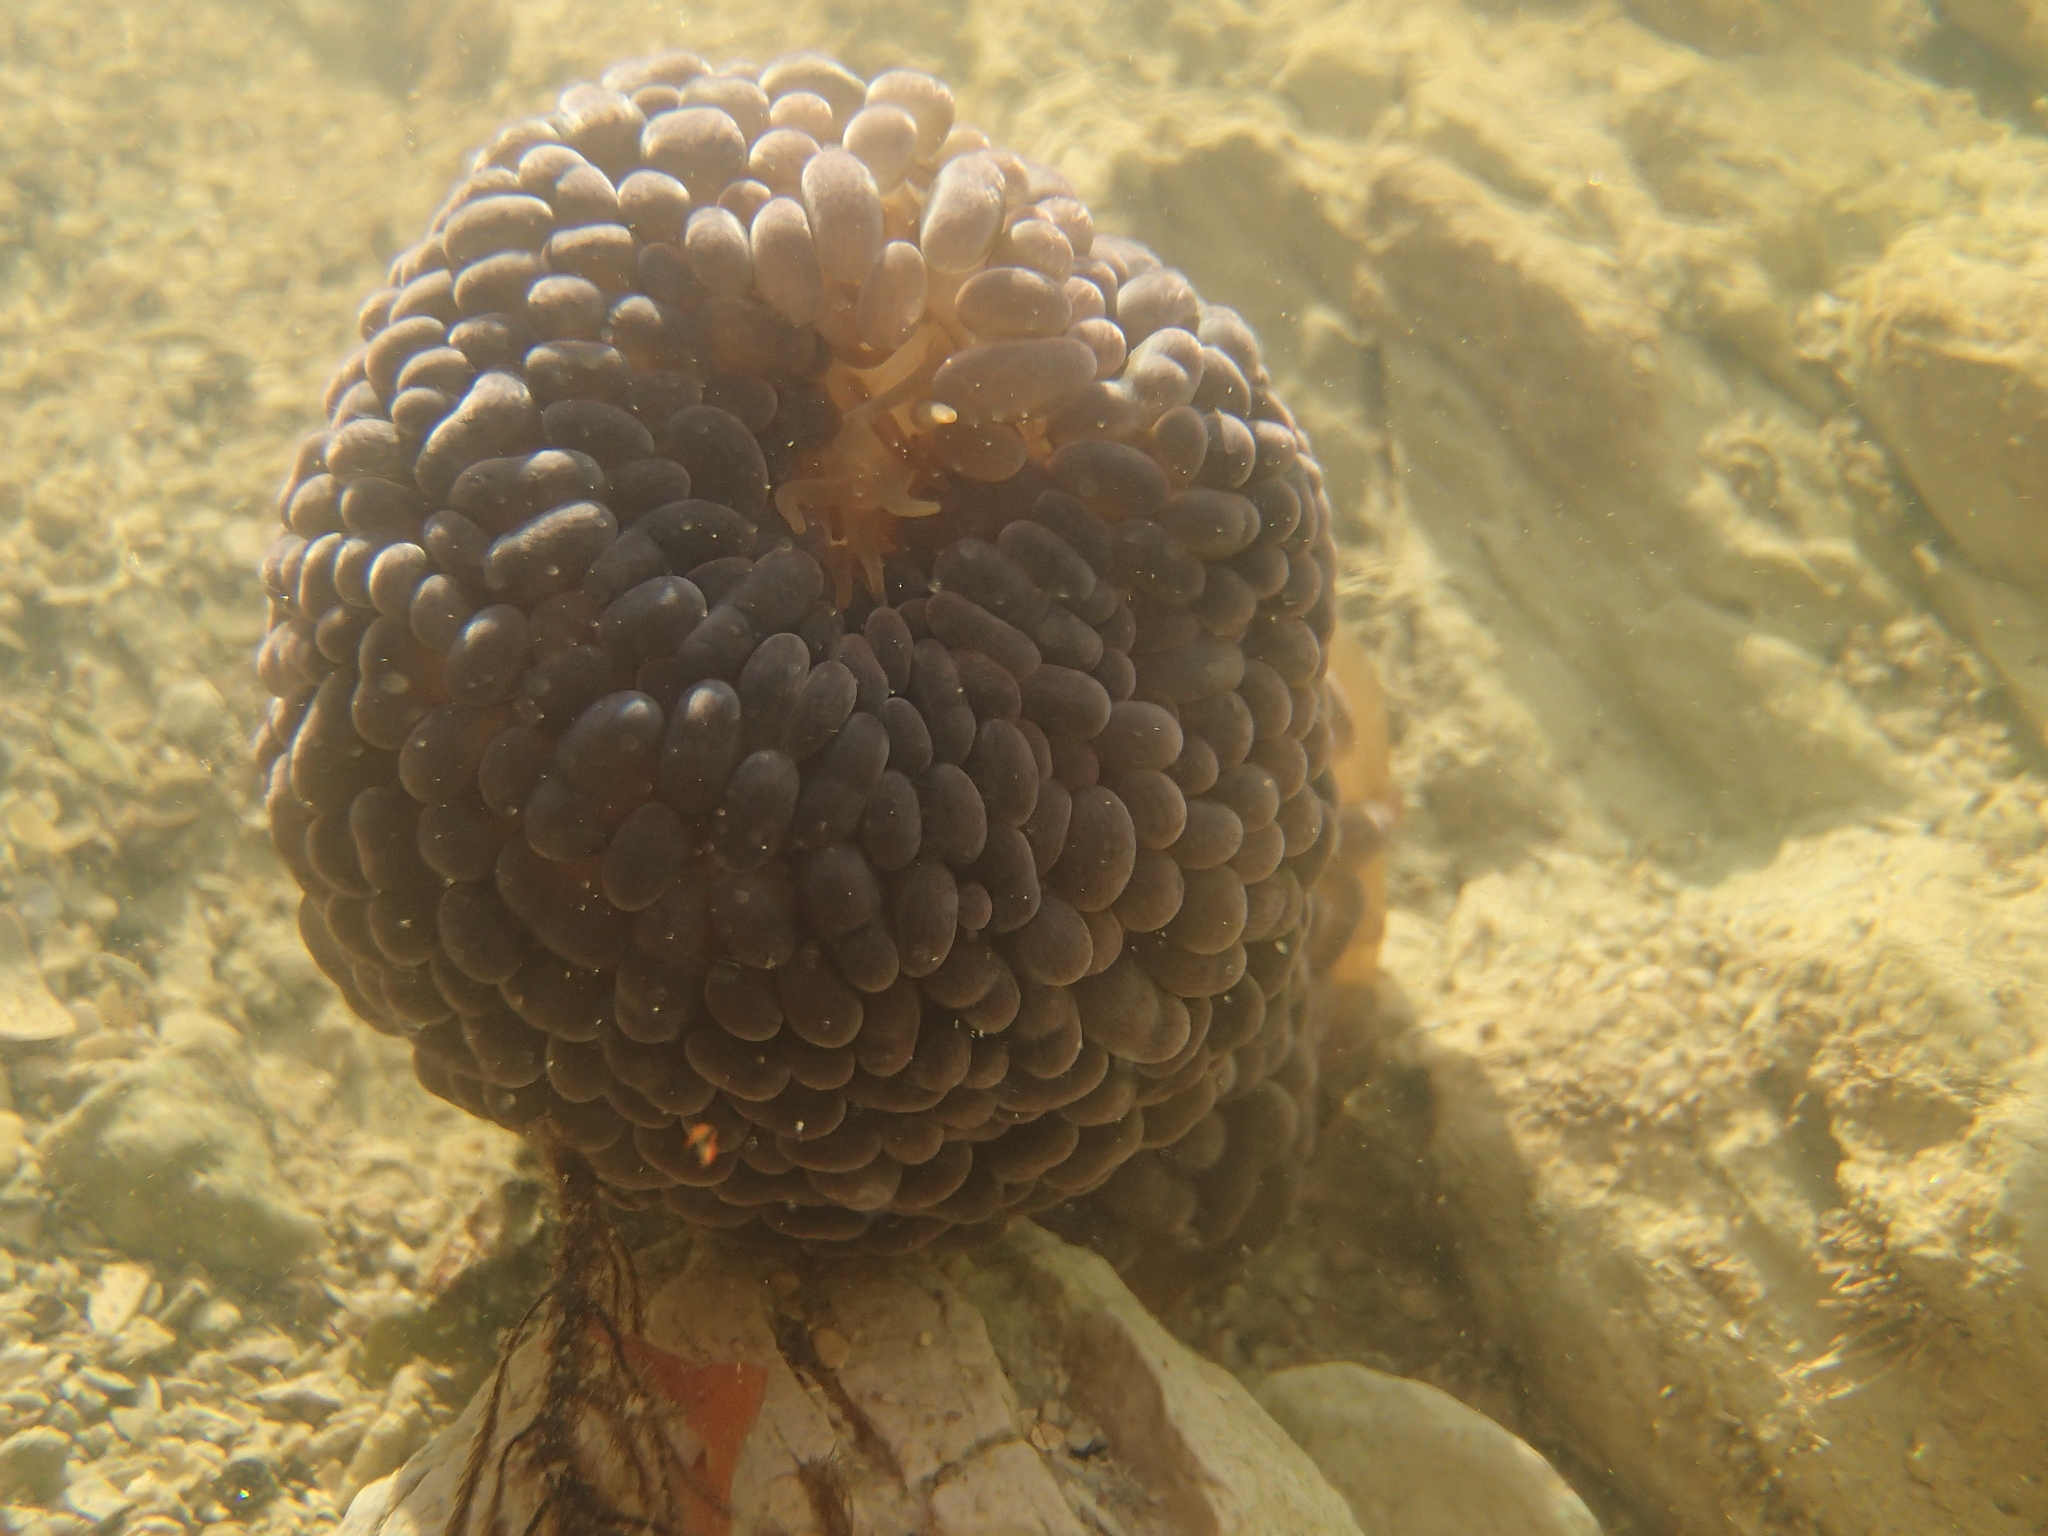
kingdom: Animalia
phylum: Cnidaria
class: Anthozoa
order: Actiniaria
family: Actiniidae
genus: Phlyctenactis
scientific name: Phlyctenactis tuberculosa
